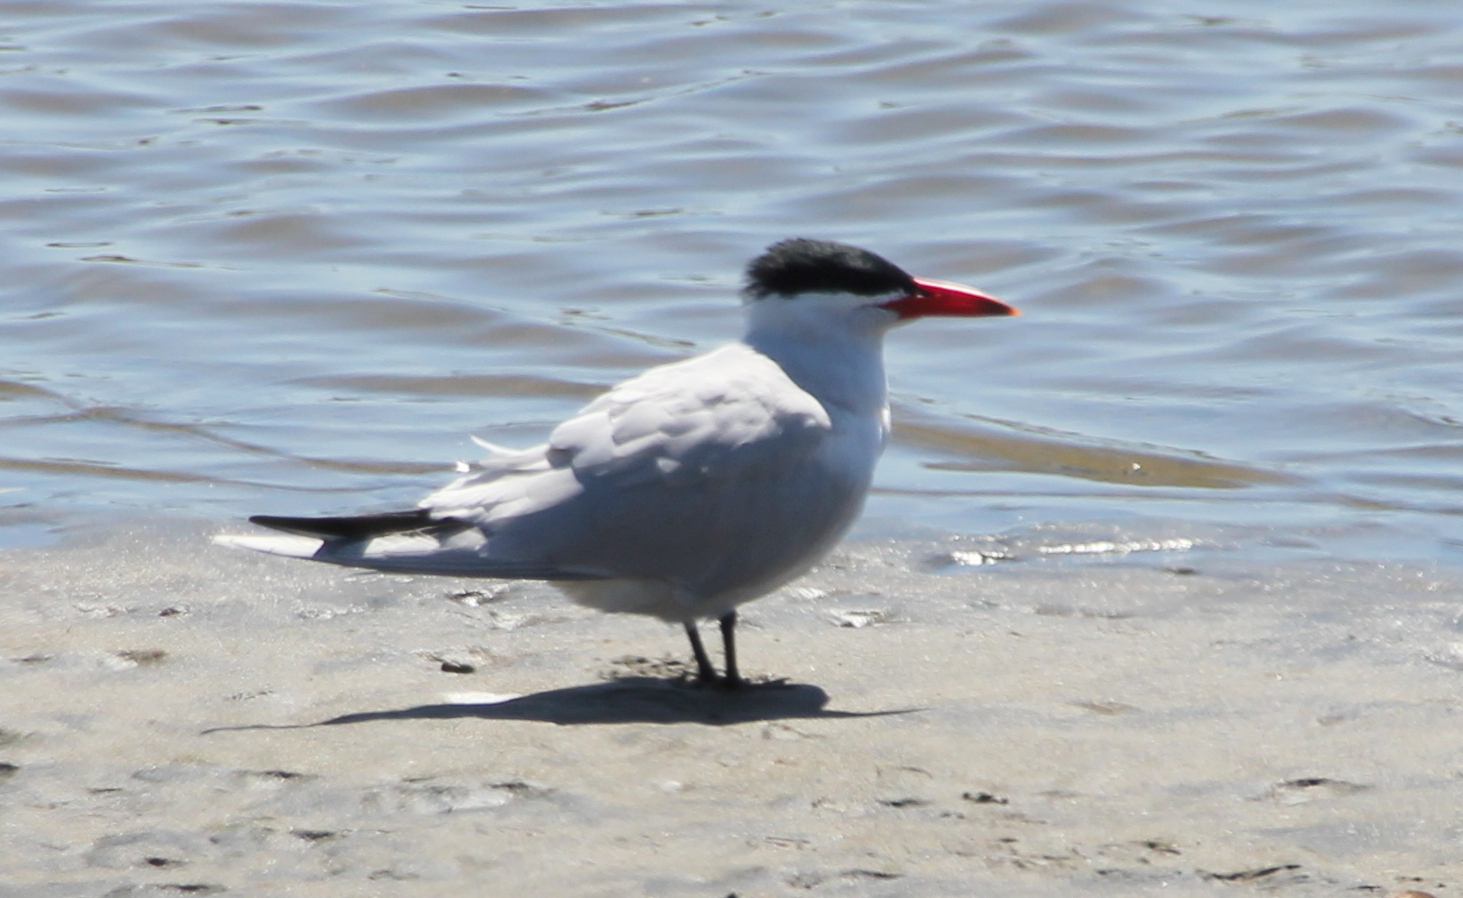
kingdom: Animalia
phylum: Chordata
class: Aves
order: Charadriiformes
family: Laridae
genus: Hydroprogne
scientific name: Hydroprogne caspia
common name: Caspian tern
